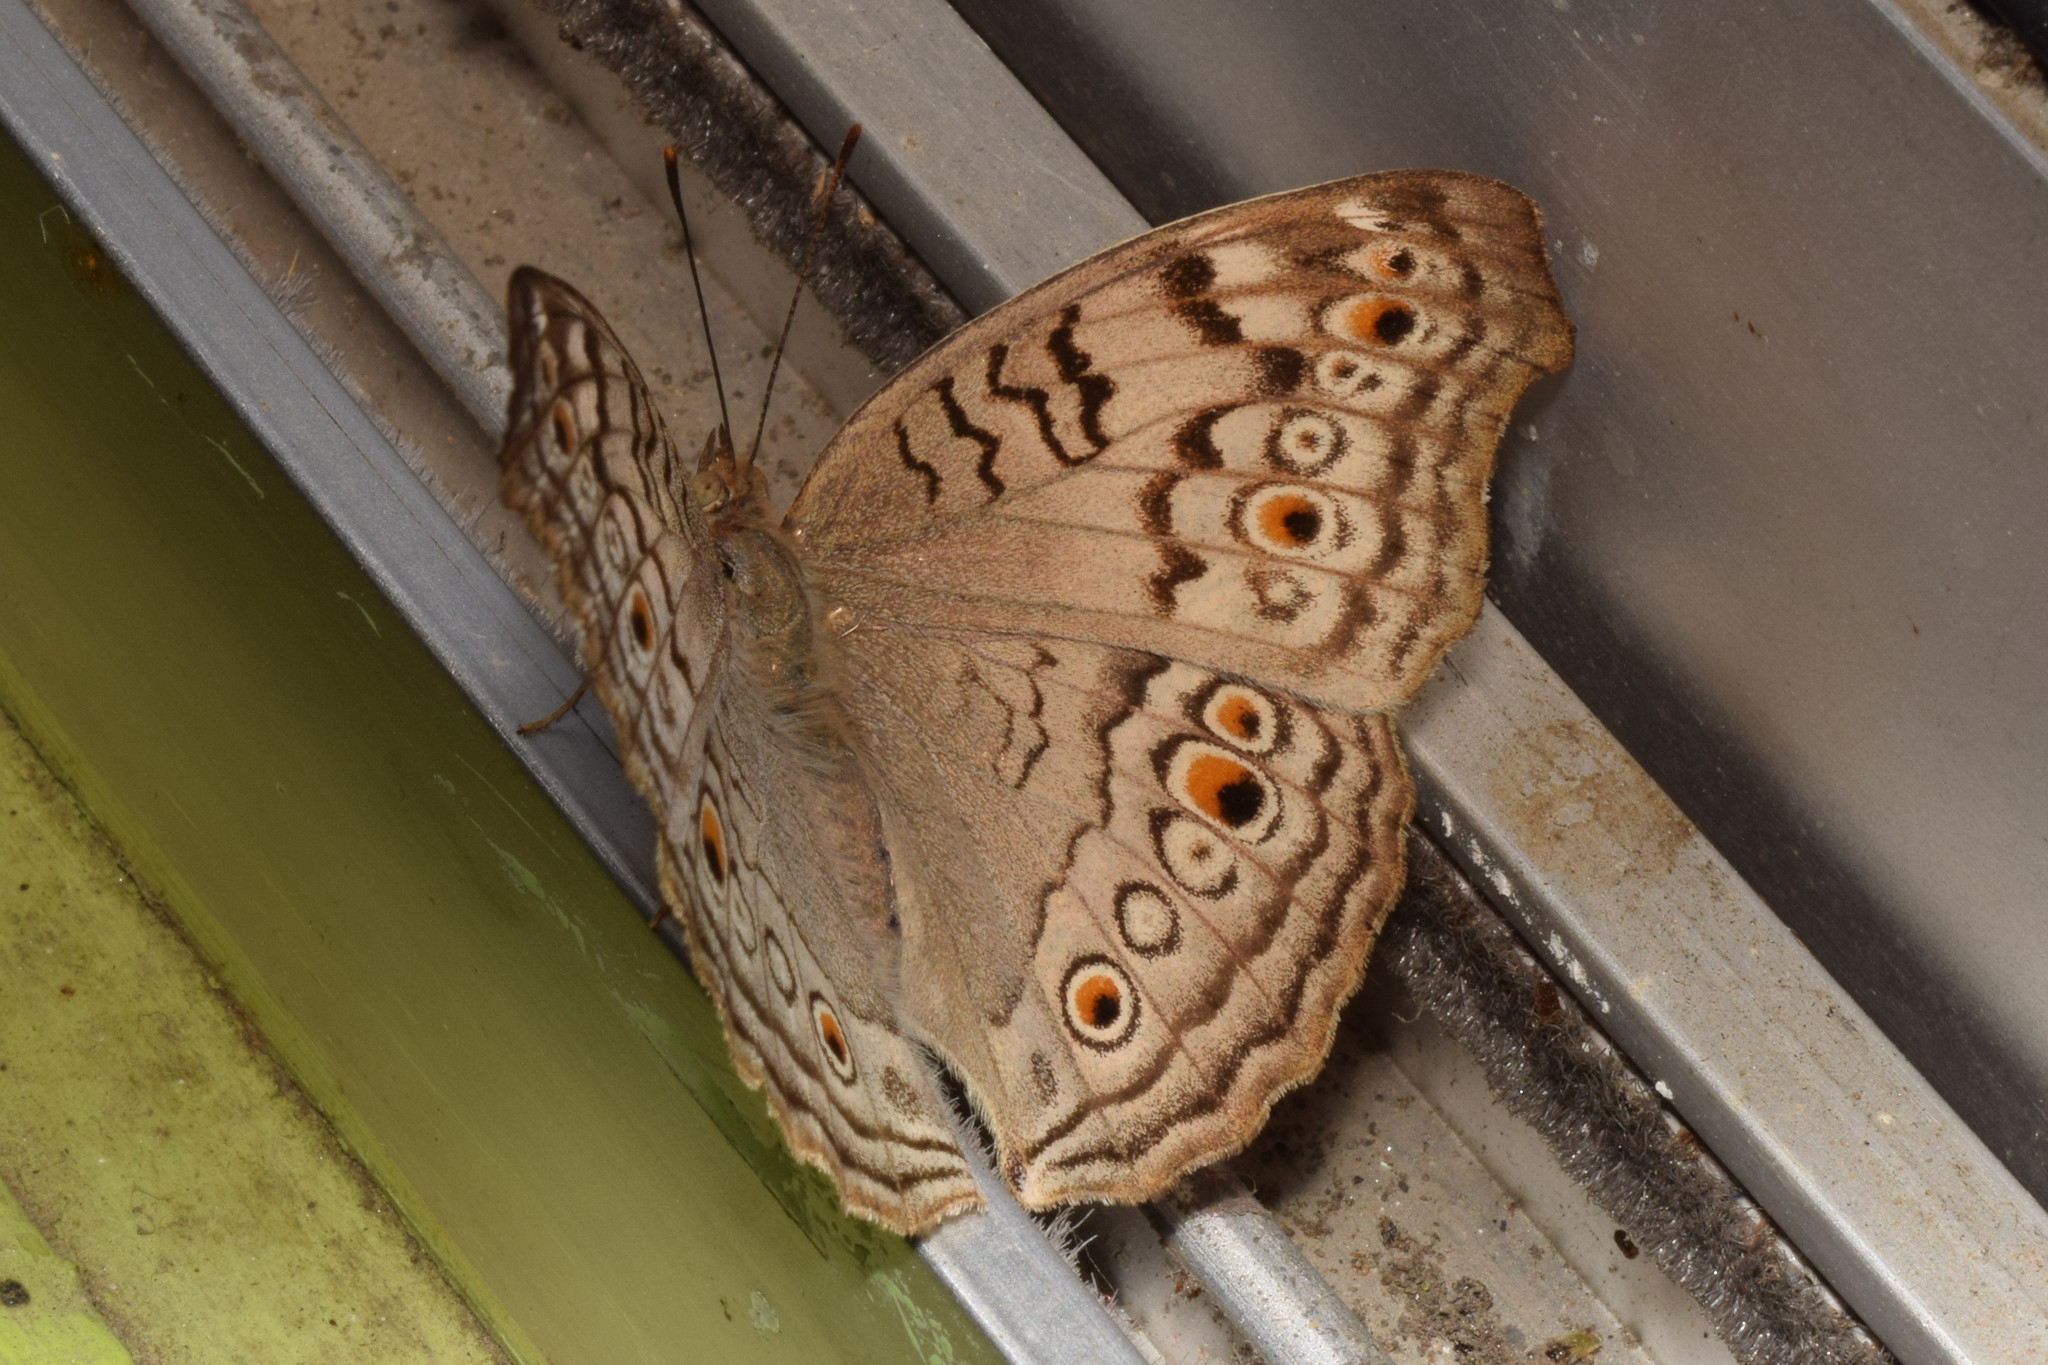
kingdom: Animalia
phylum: Arthropoda
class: Insecta
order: Lepidoptera
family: Nymphalidae
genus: Junonia
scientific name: Junonia atlites
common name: Grey pansy
